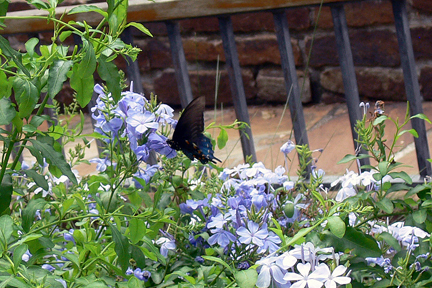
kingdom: Animalia
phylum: Arthropoda
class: Insecta
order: Lepidoptera
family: Papilionidae
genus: Battus
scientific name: Battus philenor
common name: Pipevine swallowtail
